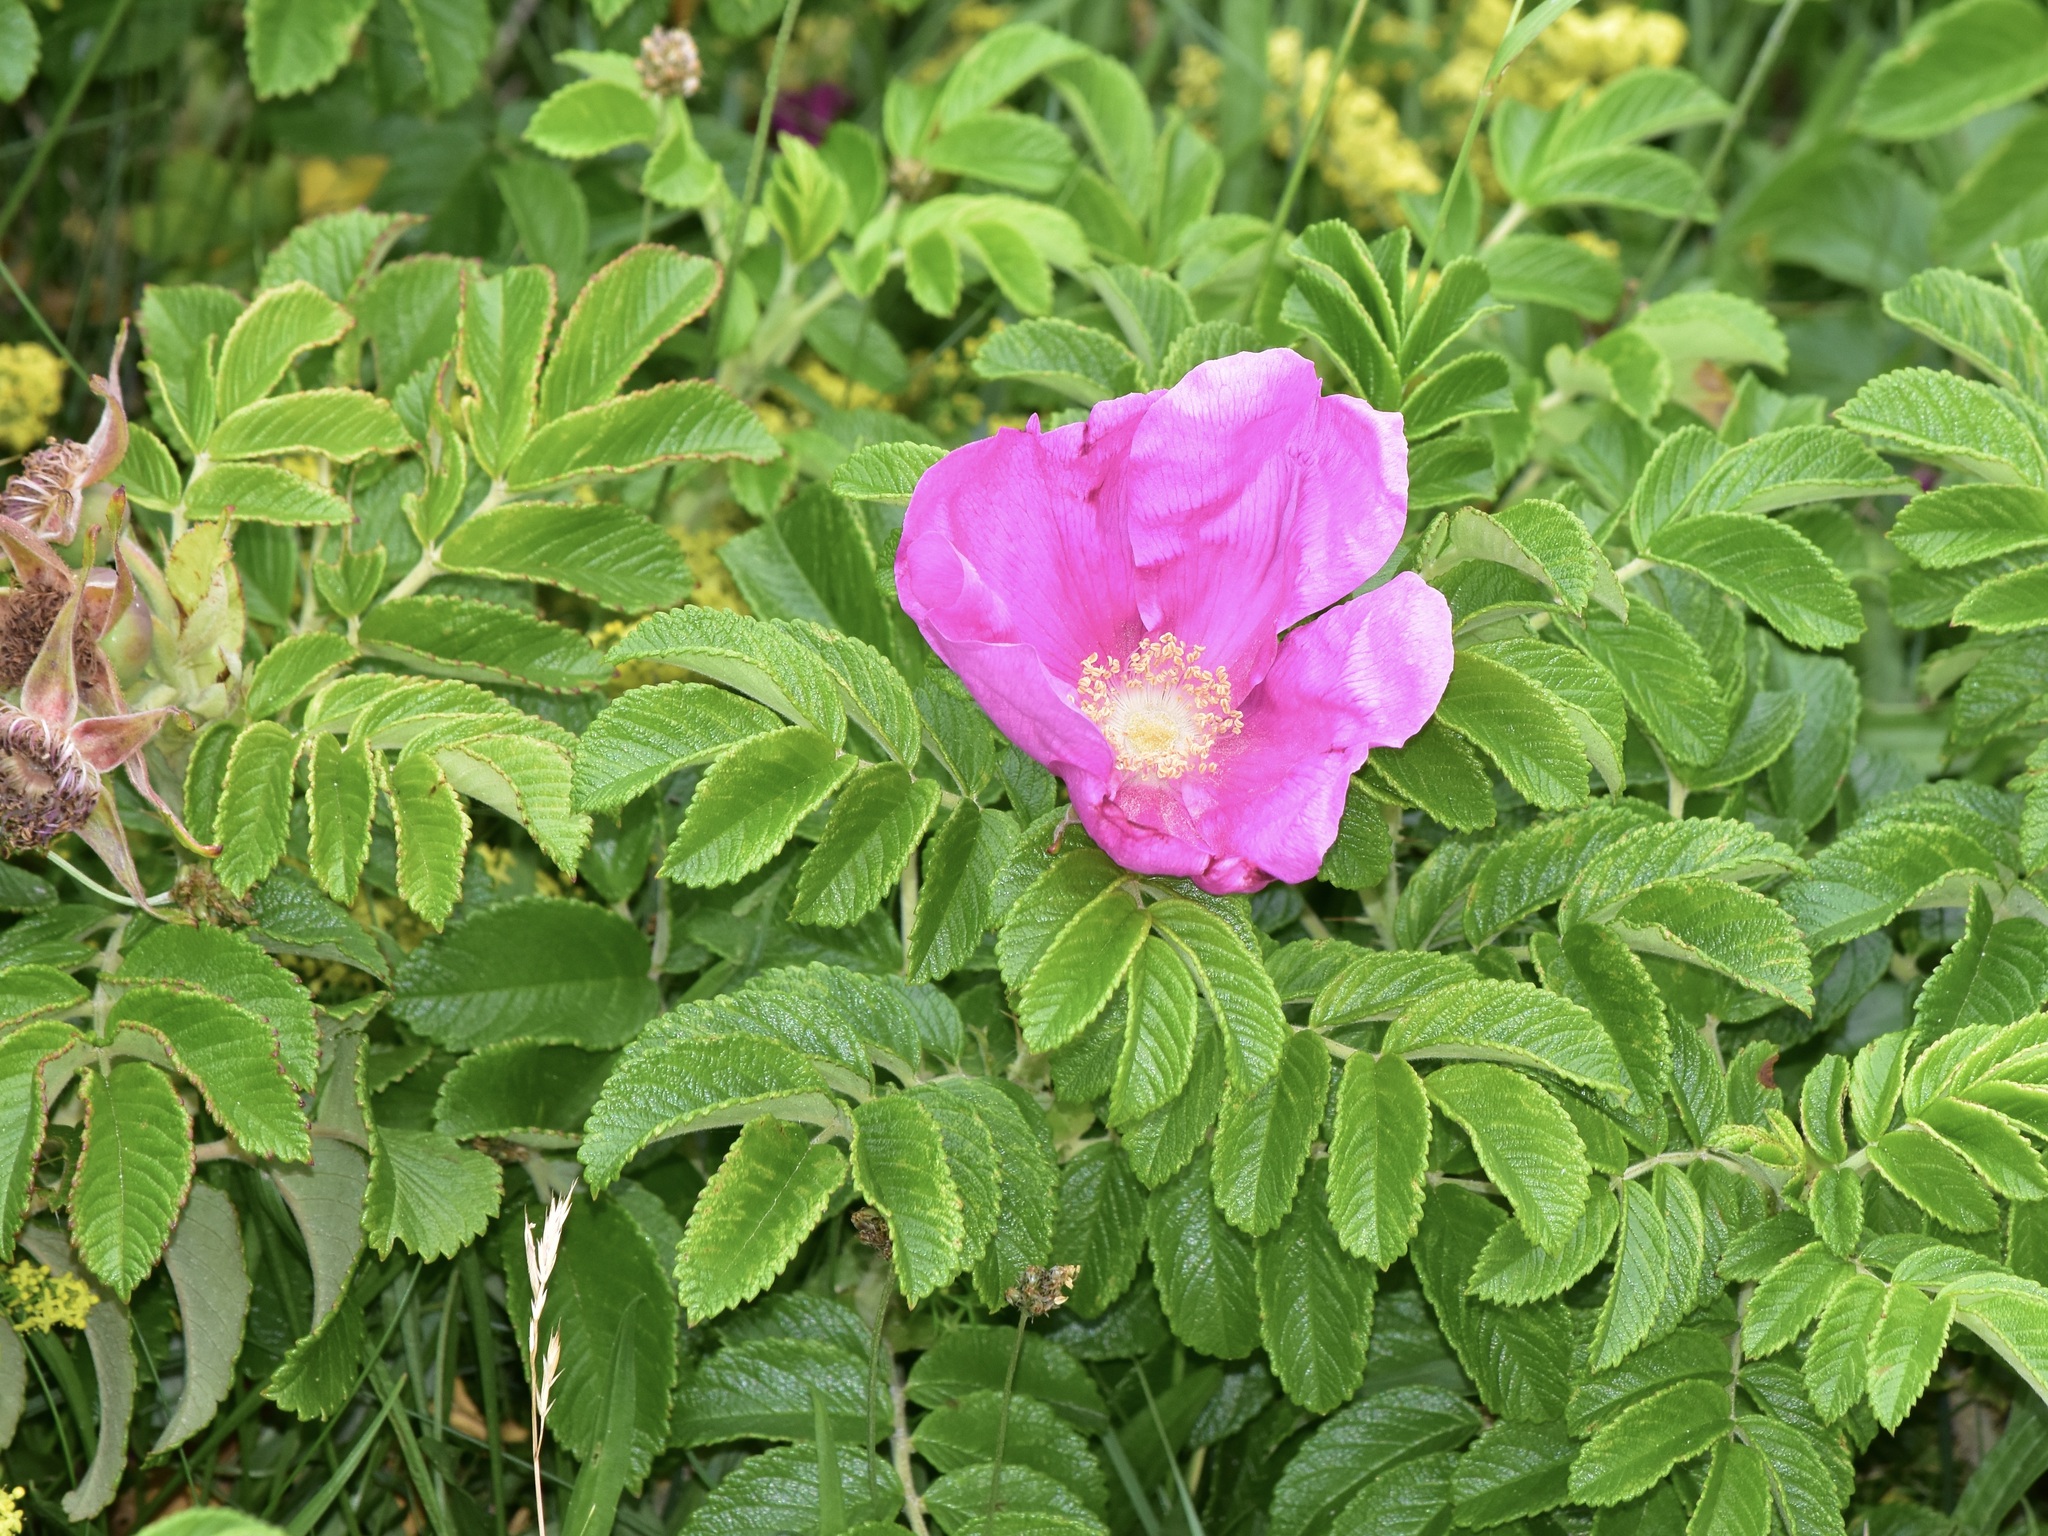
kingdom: Plantae
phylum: Tracheophyta
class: Magnoliopsida
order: Rosales
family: Rosaceae
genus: Rosa
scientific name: Rosa rugosa
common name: Japanese rose
